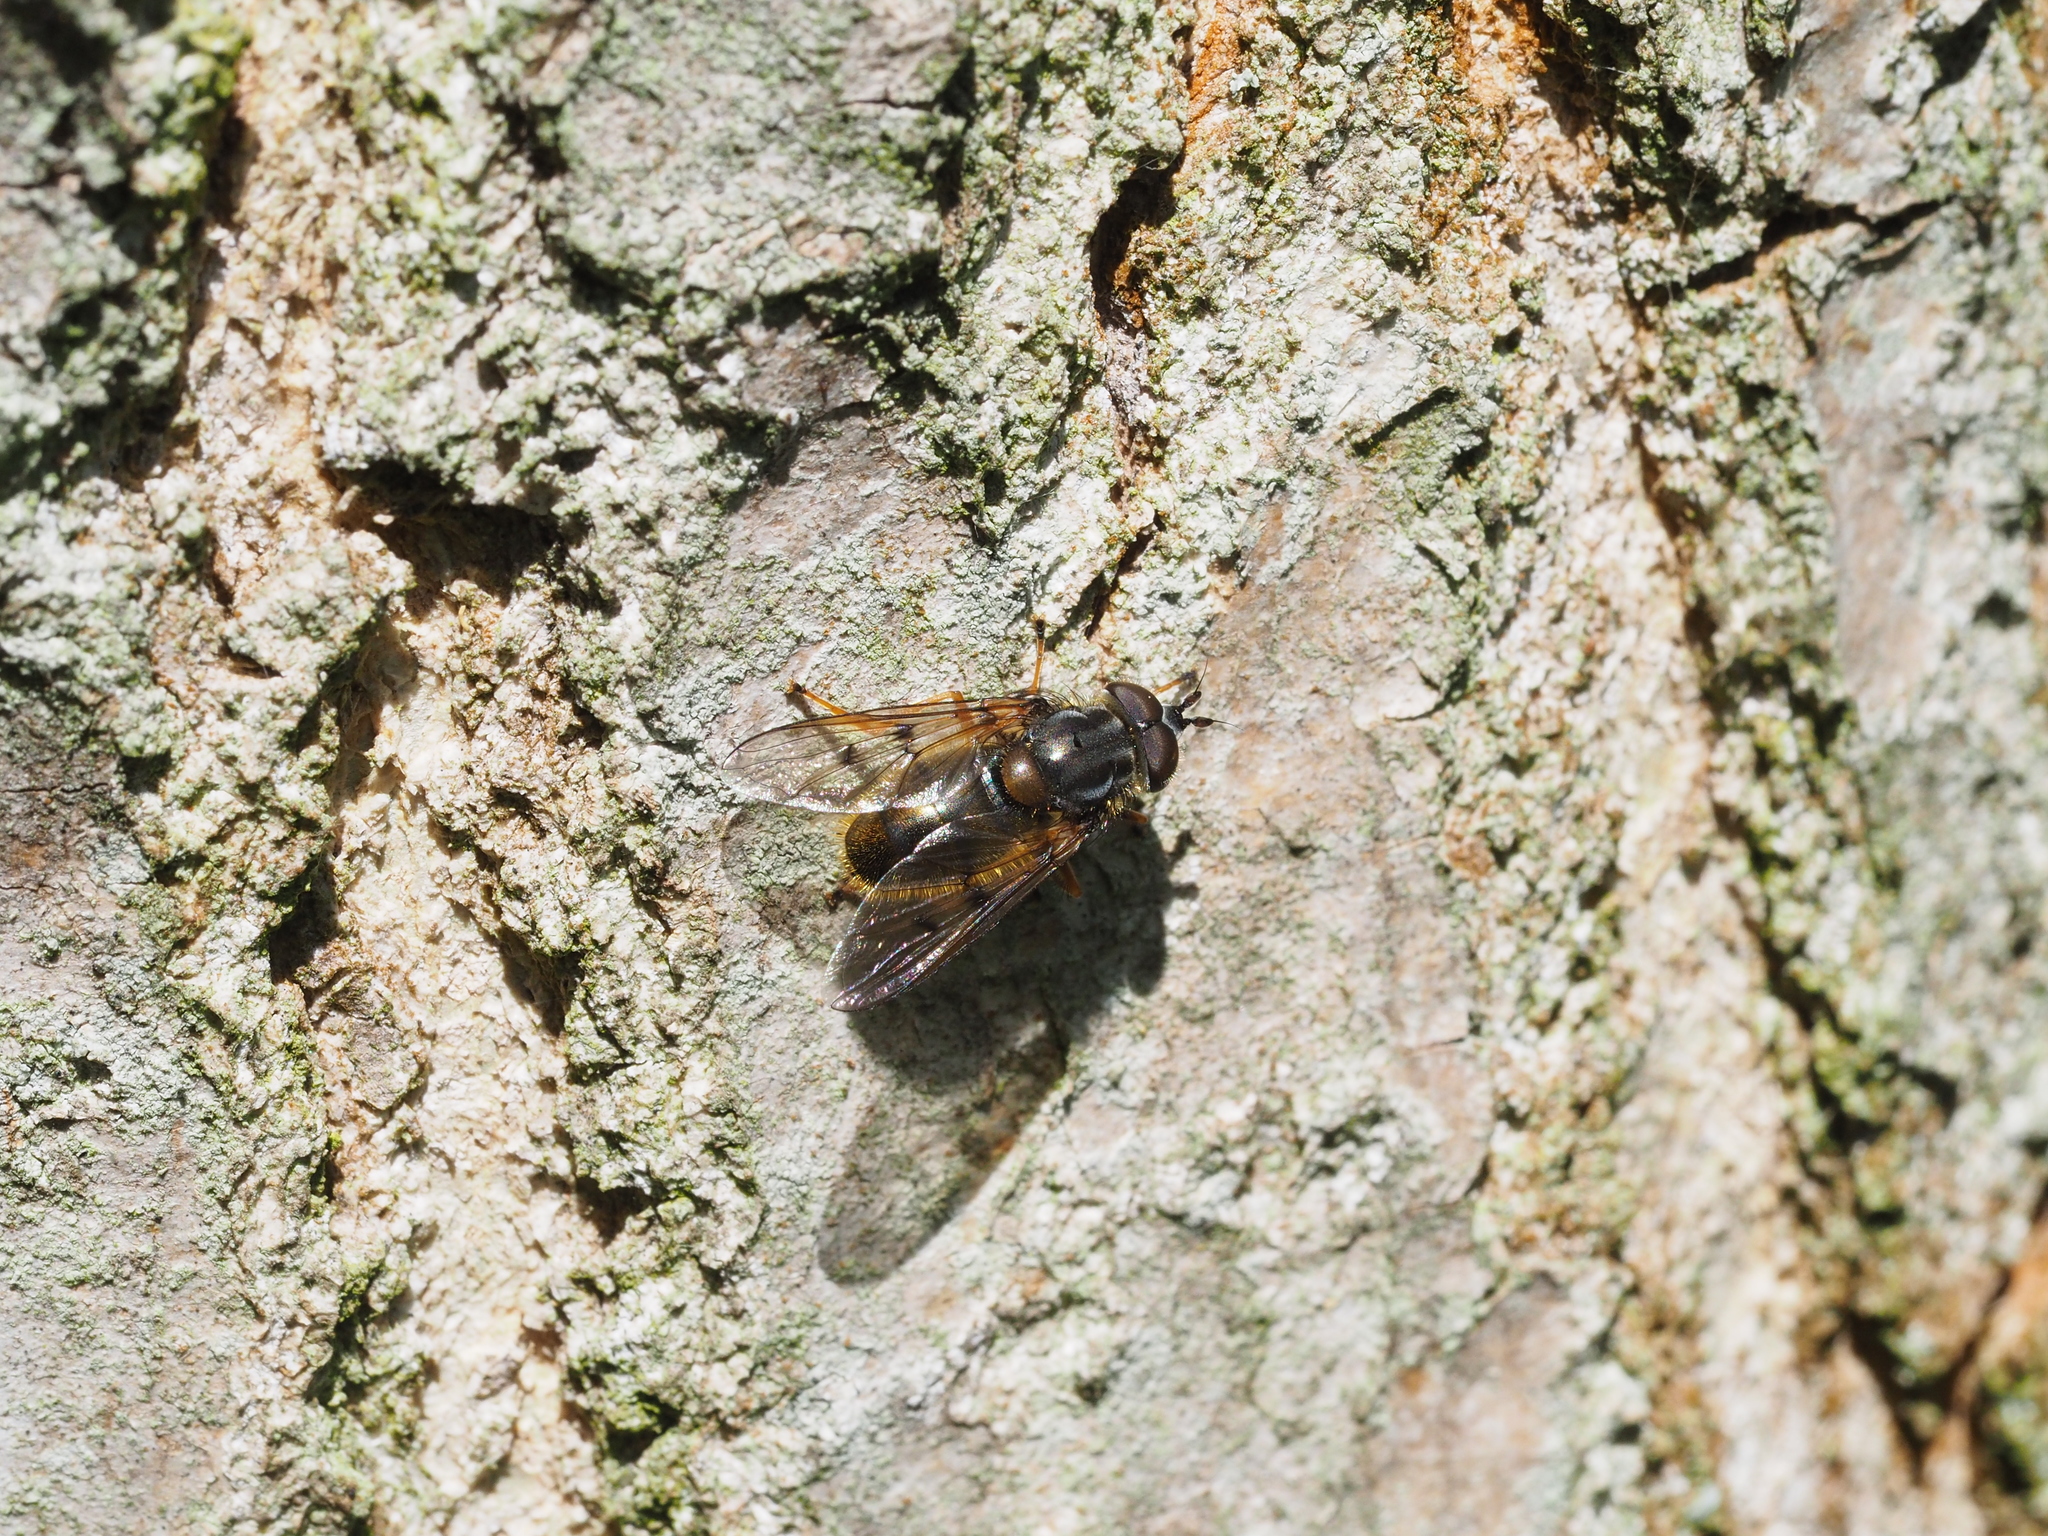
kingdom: Animalia
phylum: Arthropoda
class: Insecta
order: Diptera
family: Syrphidae
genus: Ferdinandea
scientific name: Ferdinandea cuprea
